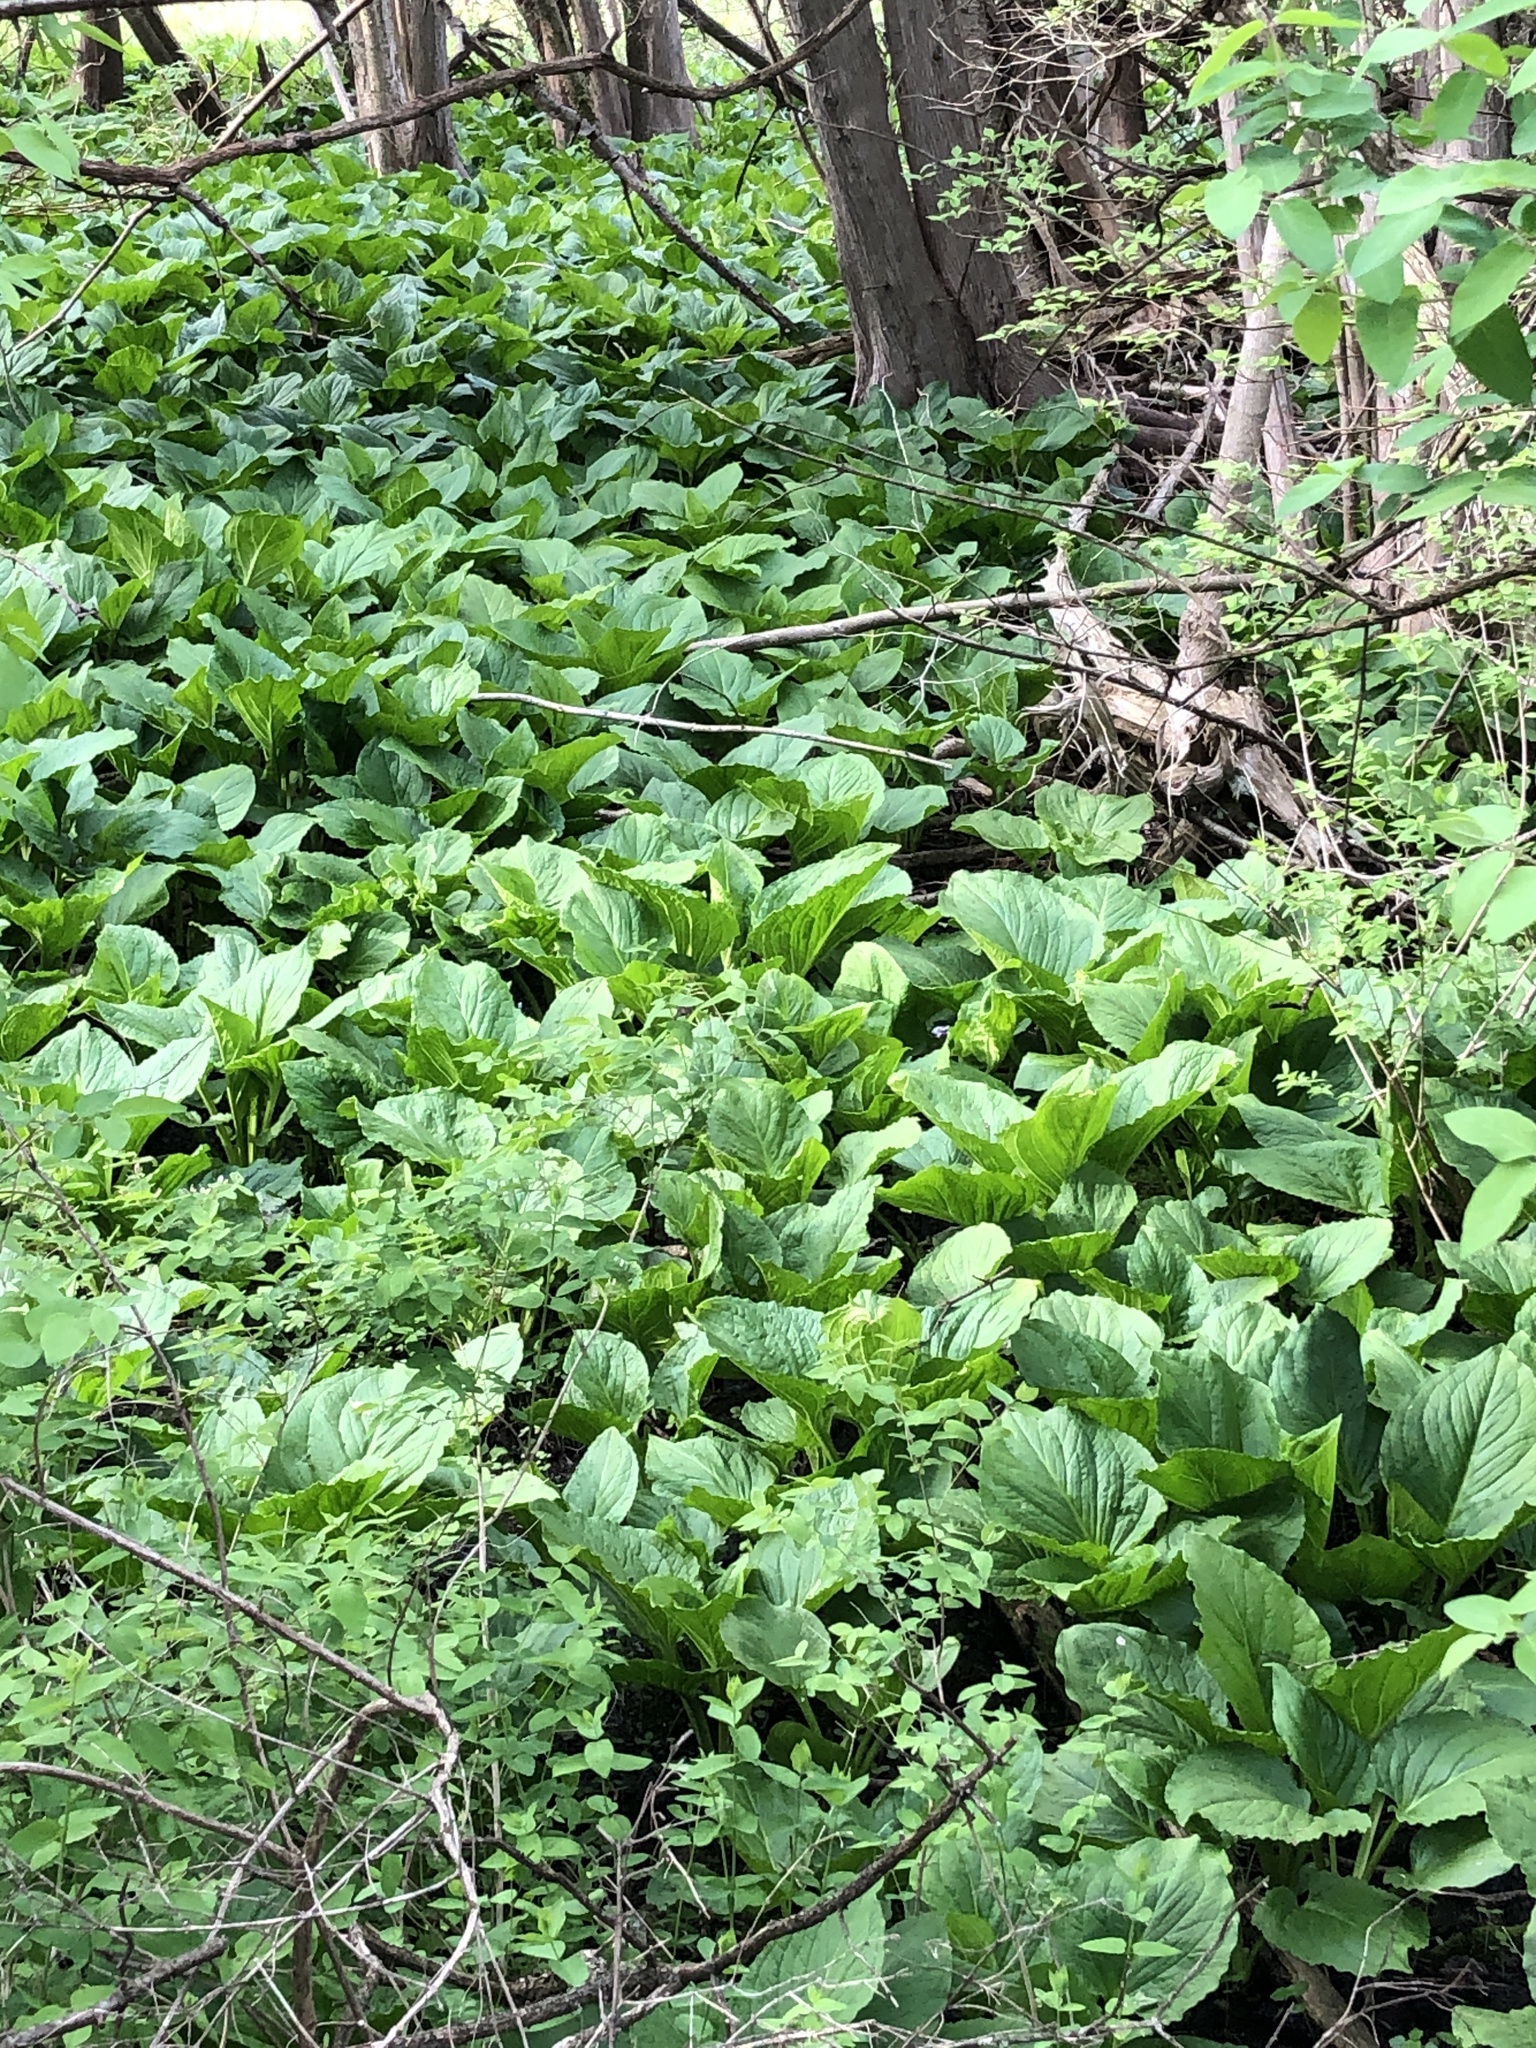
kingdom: Plantae
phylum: Tracheophyta
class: Liliopsida
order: Alismatales
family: Araceae
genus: Symplocarpus
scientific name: Symplocarpus foetidus
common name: Eastern skunk cabbage
